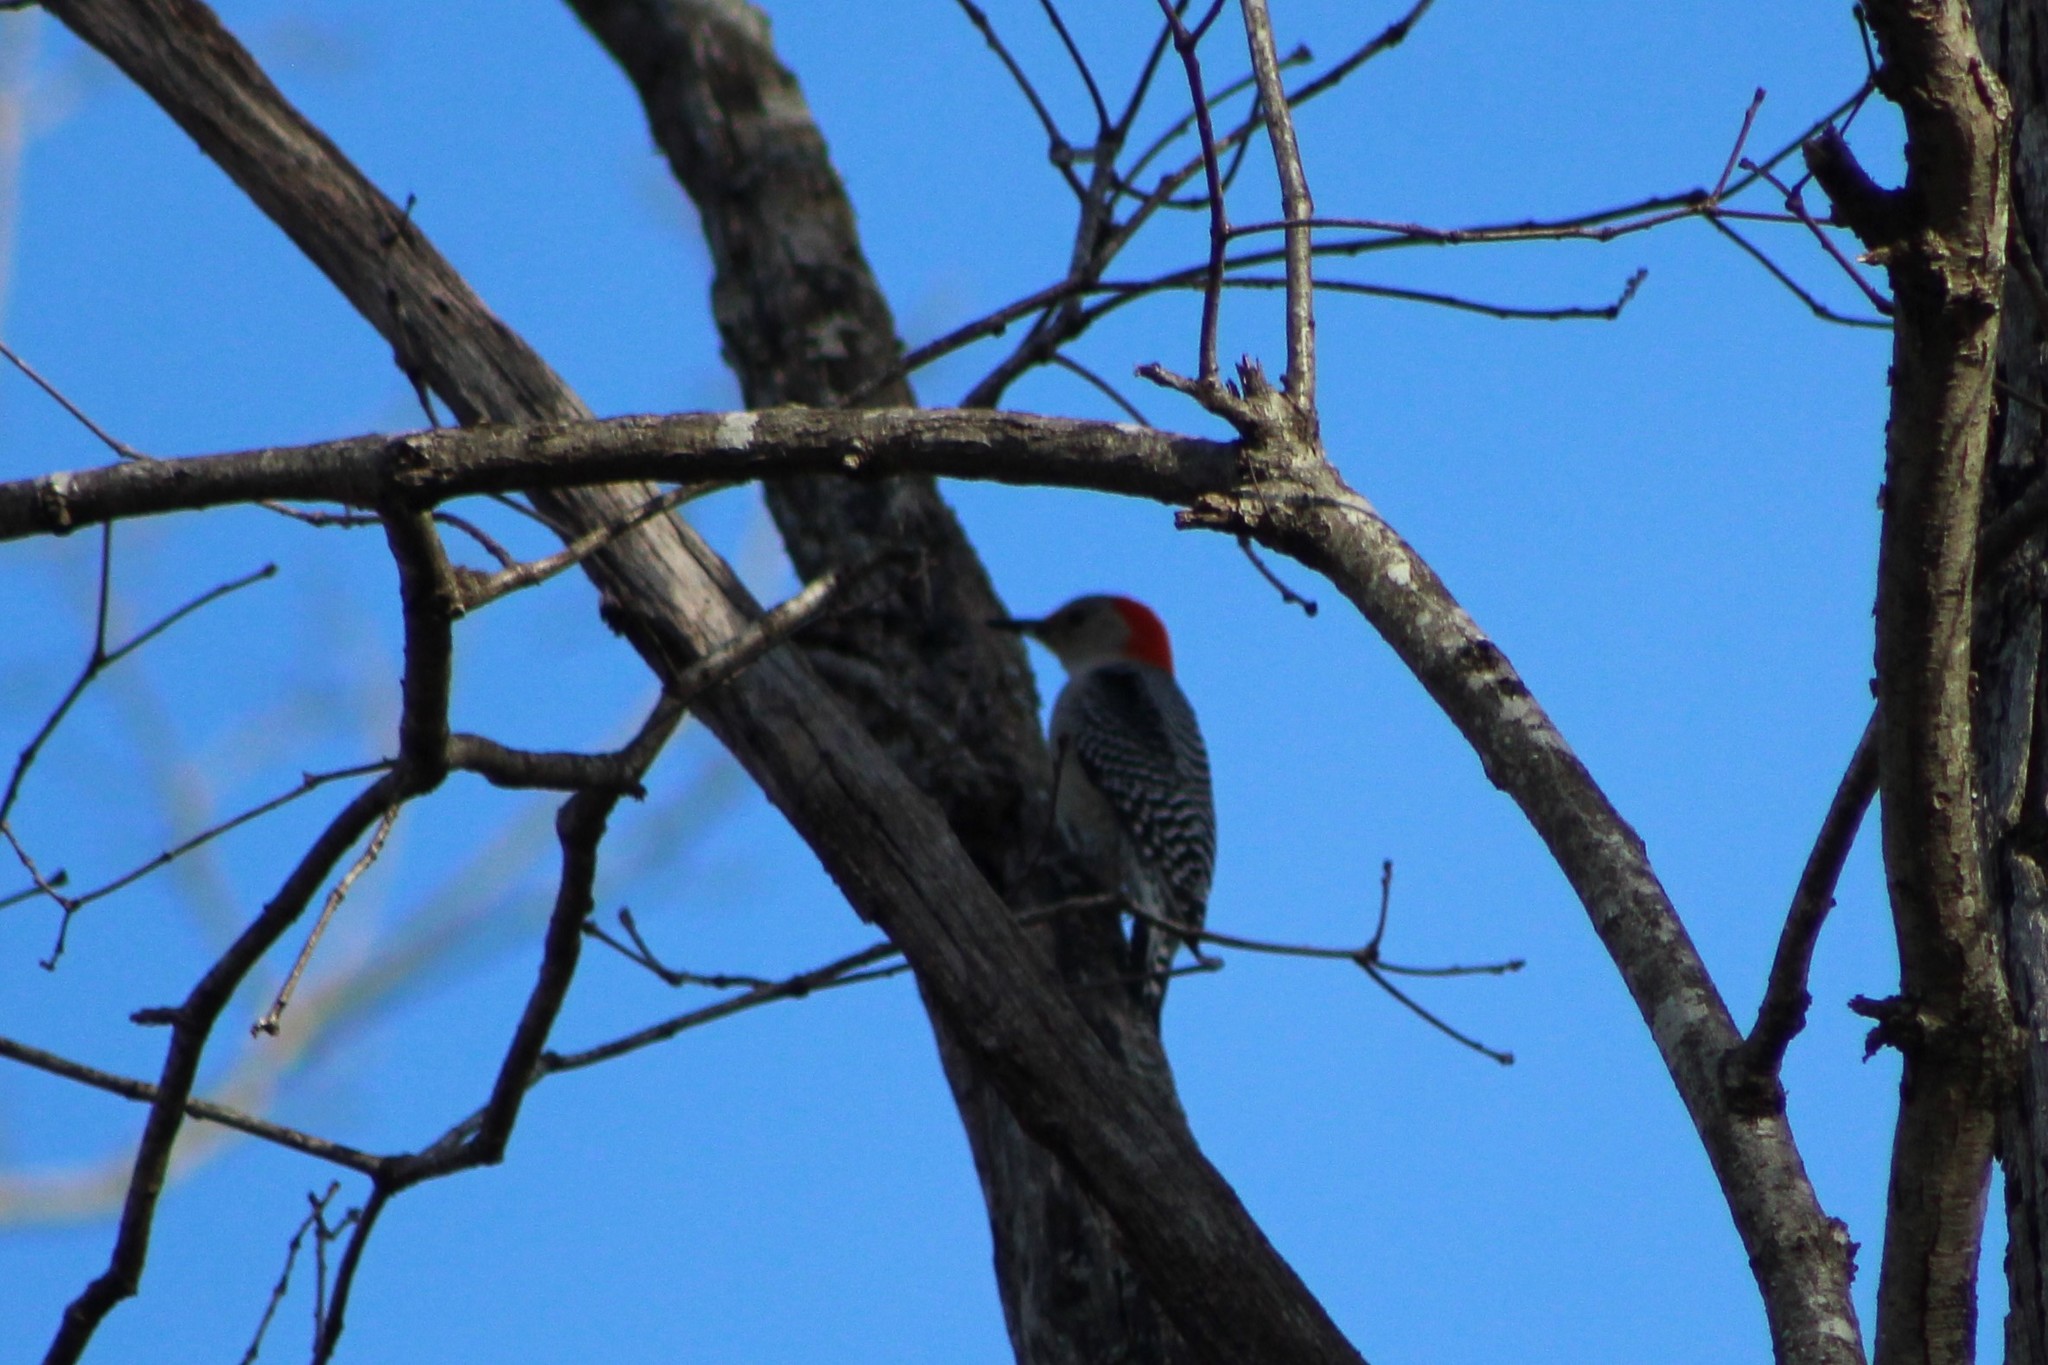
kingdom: Animalia
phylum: Chordata
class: Aves
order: Piciformes
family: Picidae
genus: Melanerpes
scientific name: Melanerpes carolinus
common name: Red-bellied woodpecker
